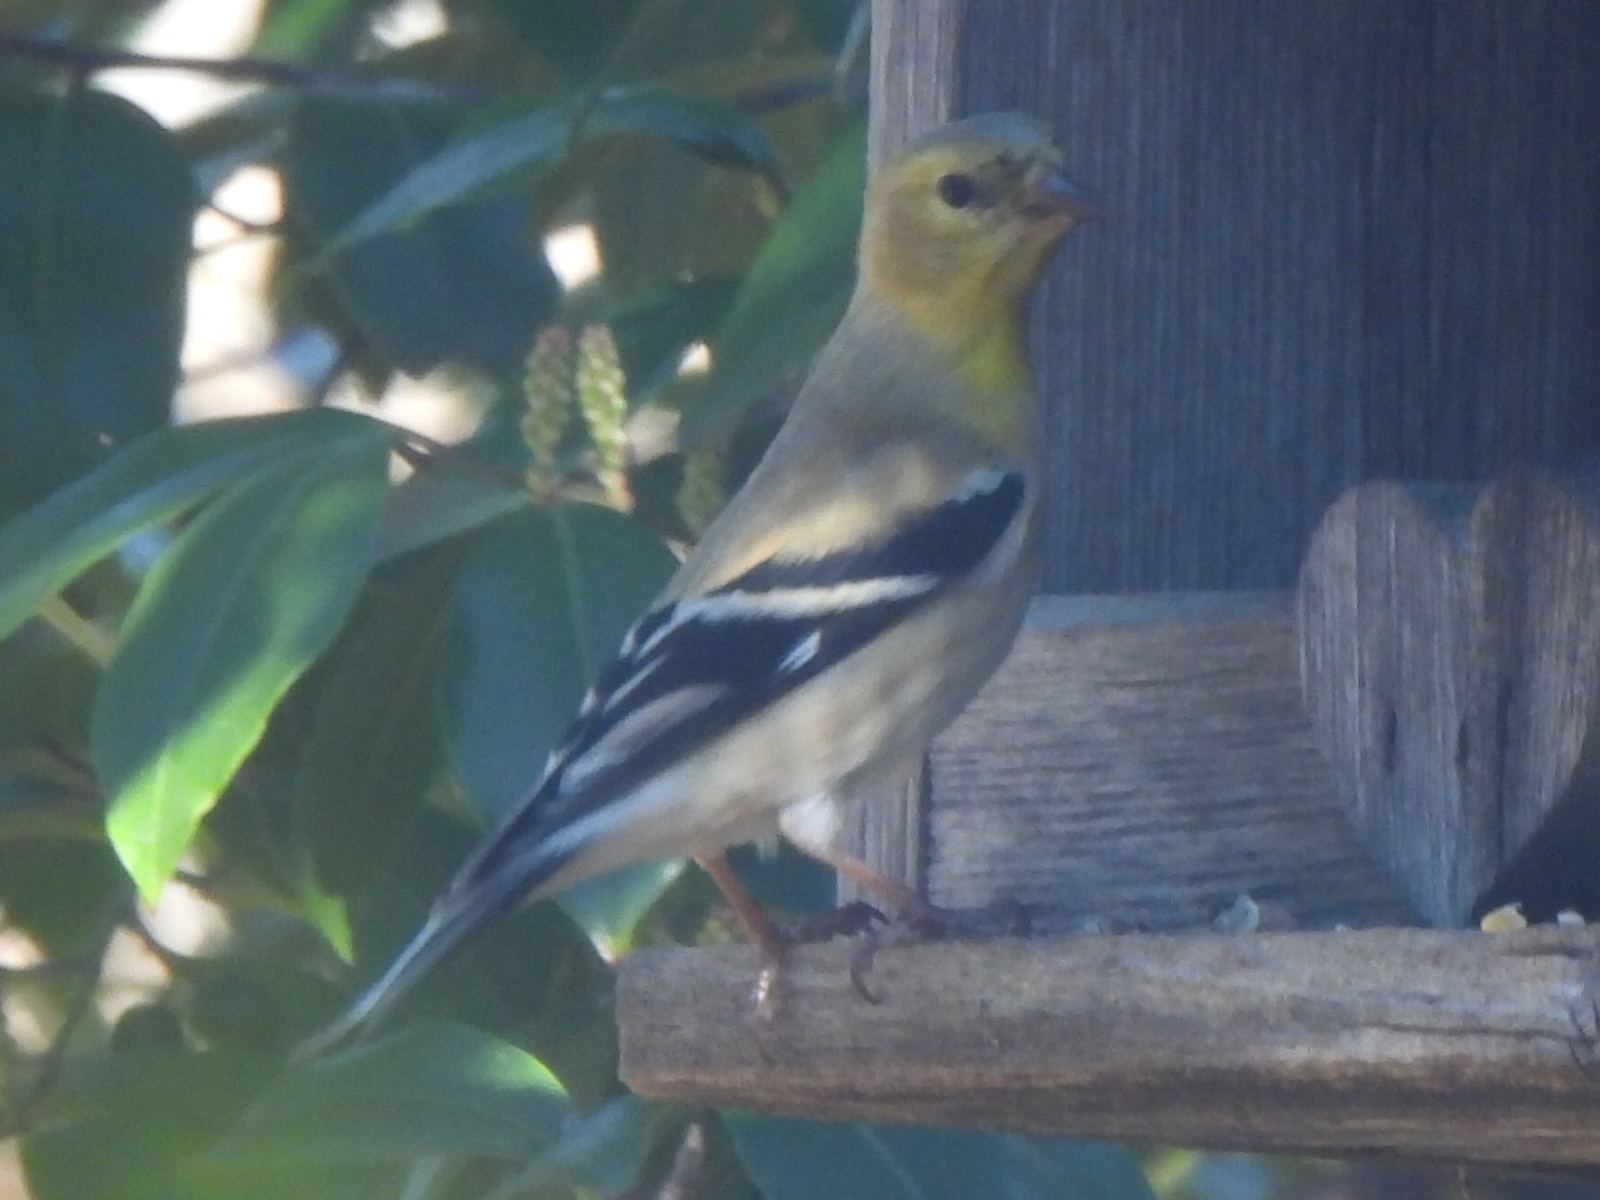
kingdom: Animalia
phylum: Chordata
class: Aves
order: Passeriformes
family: Fringillidae
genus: Spinus
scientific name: Spinus tristis
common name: American goldfinch
